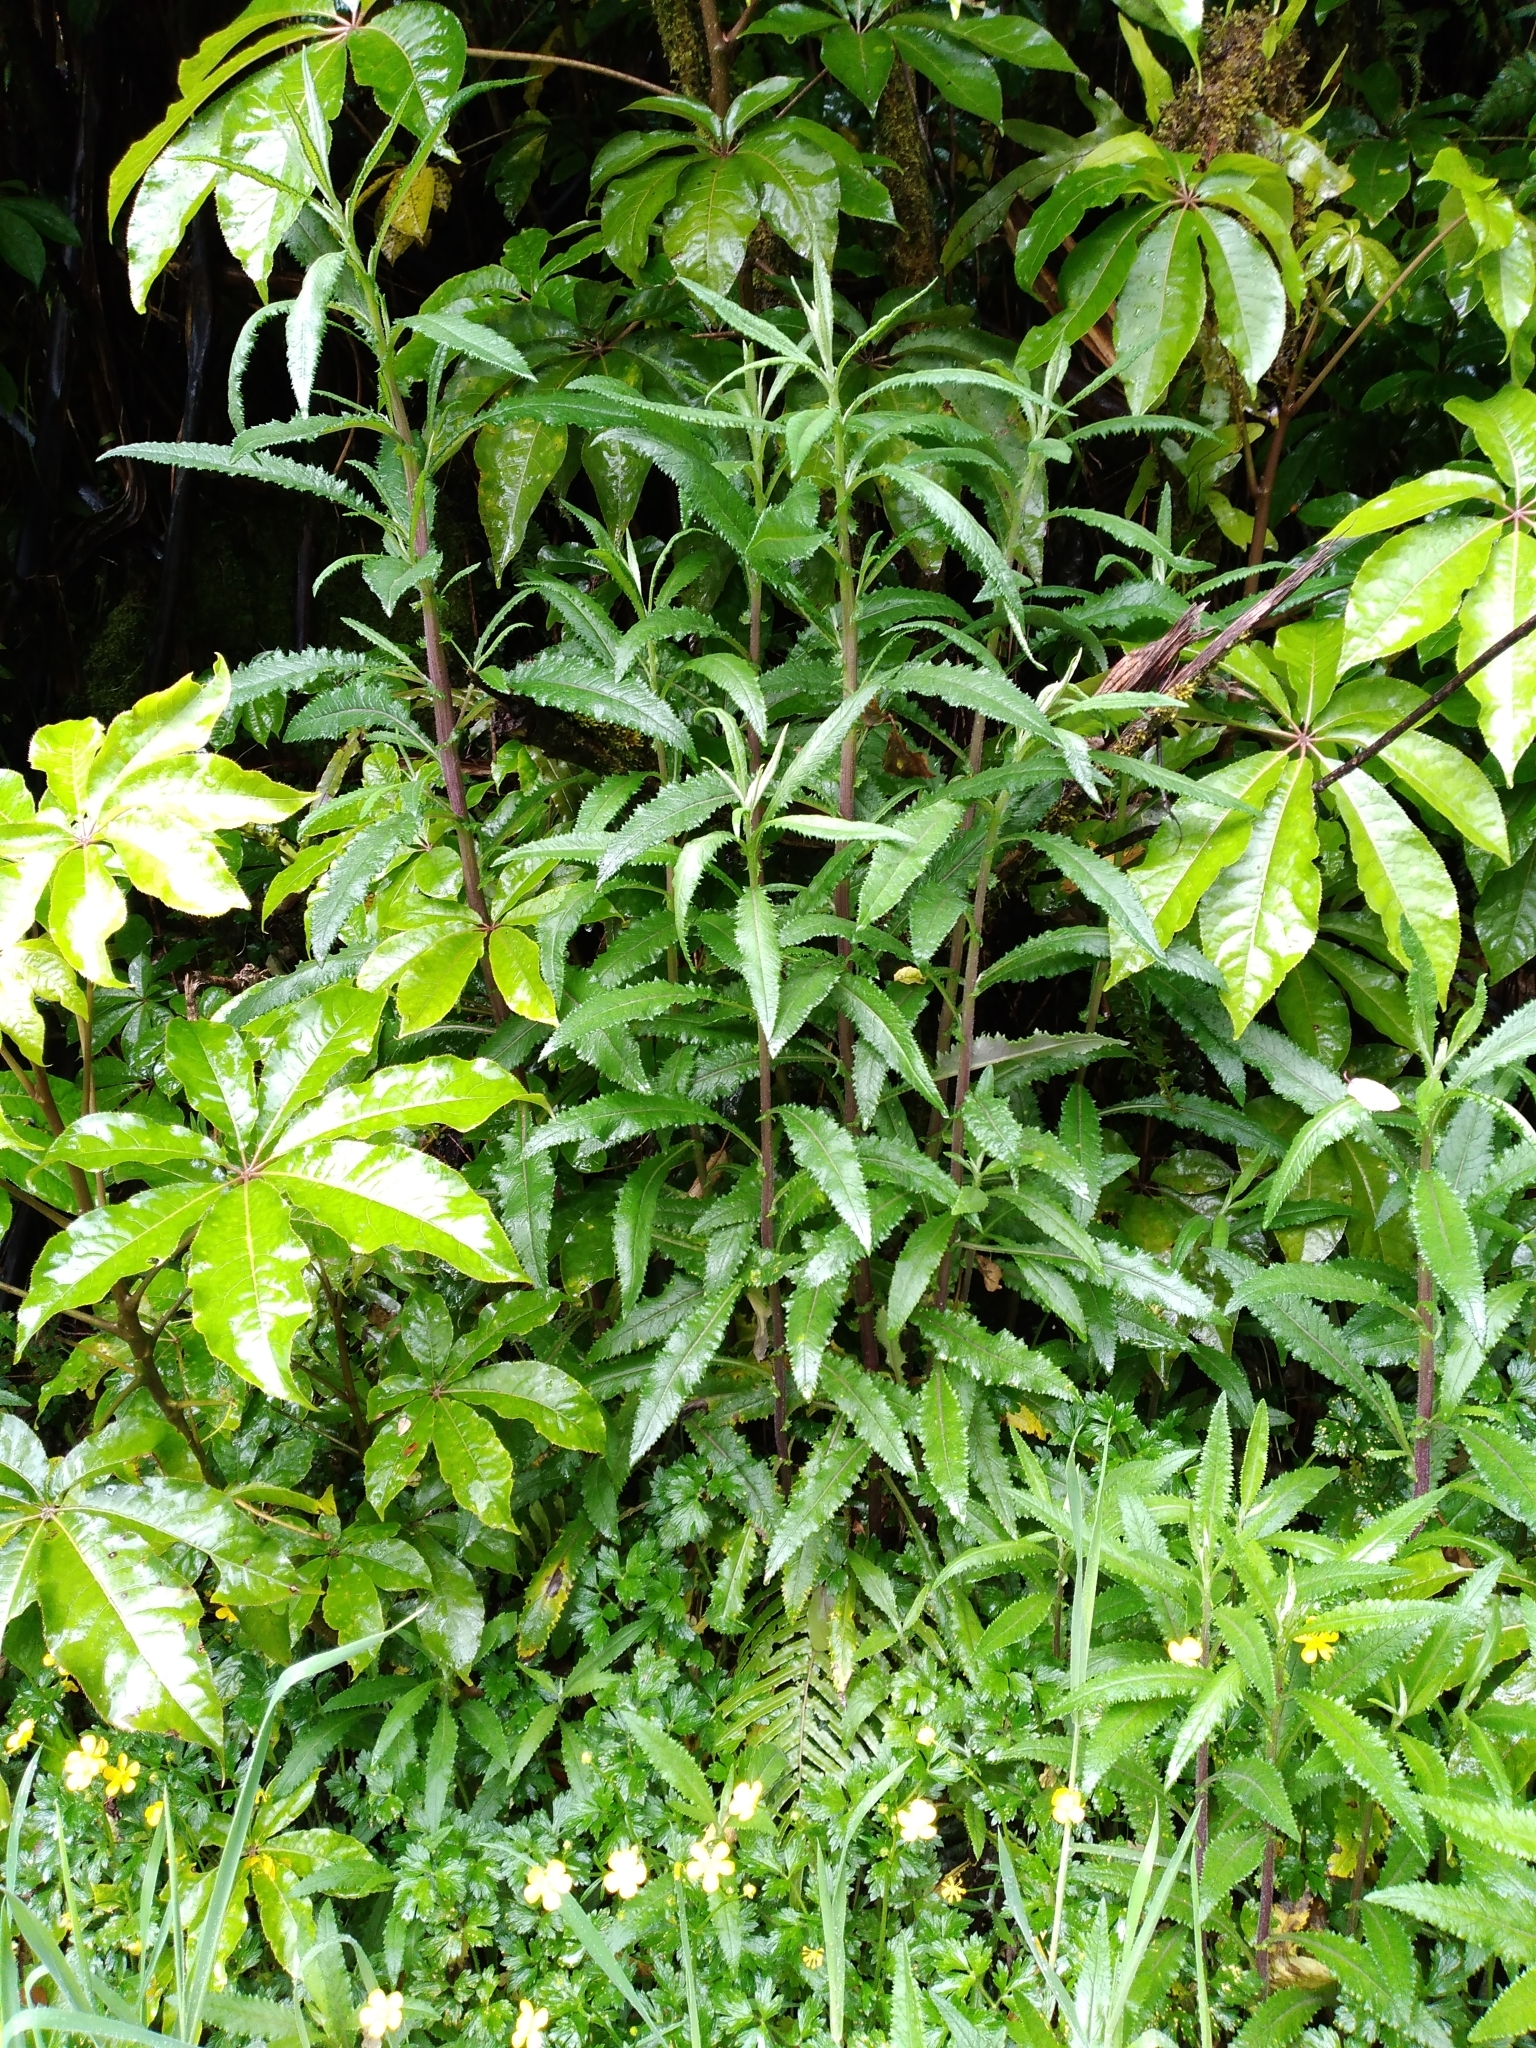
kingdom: Plantae
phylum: Tracheophyta
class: Magnoliopsida
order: Asterales
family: Asteraceae
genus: Senecio
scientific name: Senecio minimus
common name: Toothed fireweed
